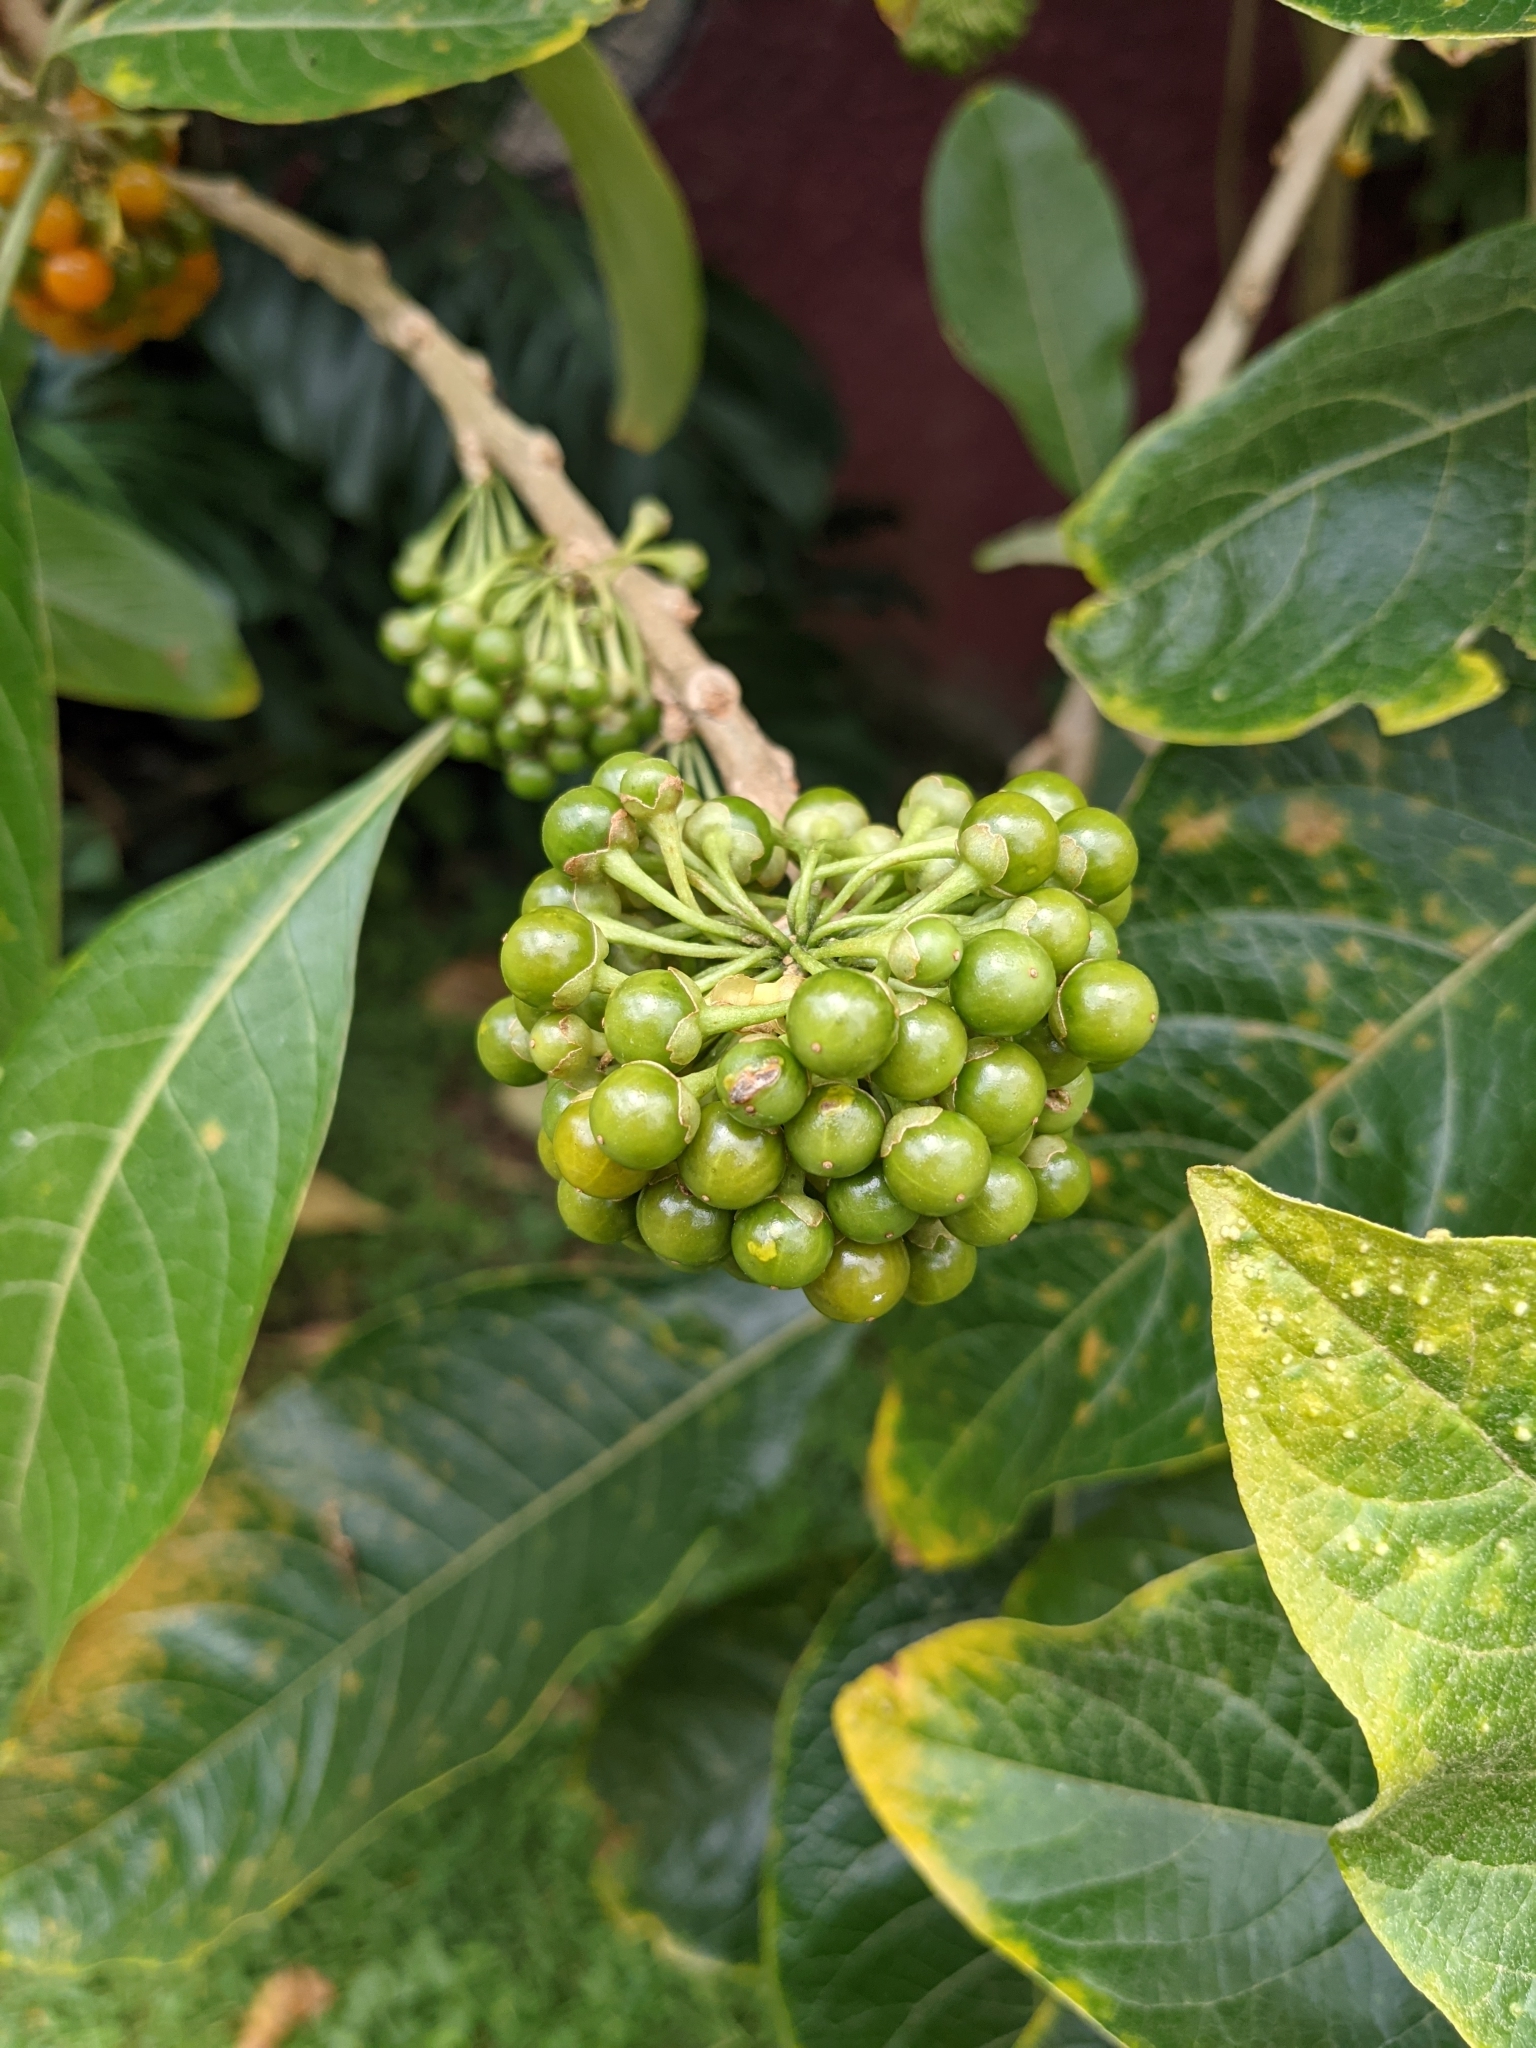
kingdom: Plantae
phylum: Tracheophyta
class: Magnoliopsida
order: Solanales
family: Solanaceae
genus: Iochroma
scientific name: Iochroma arborescens
